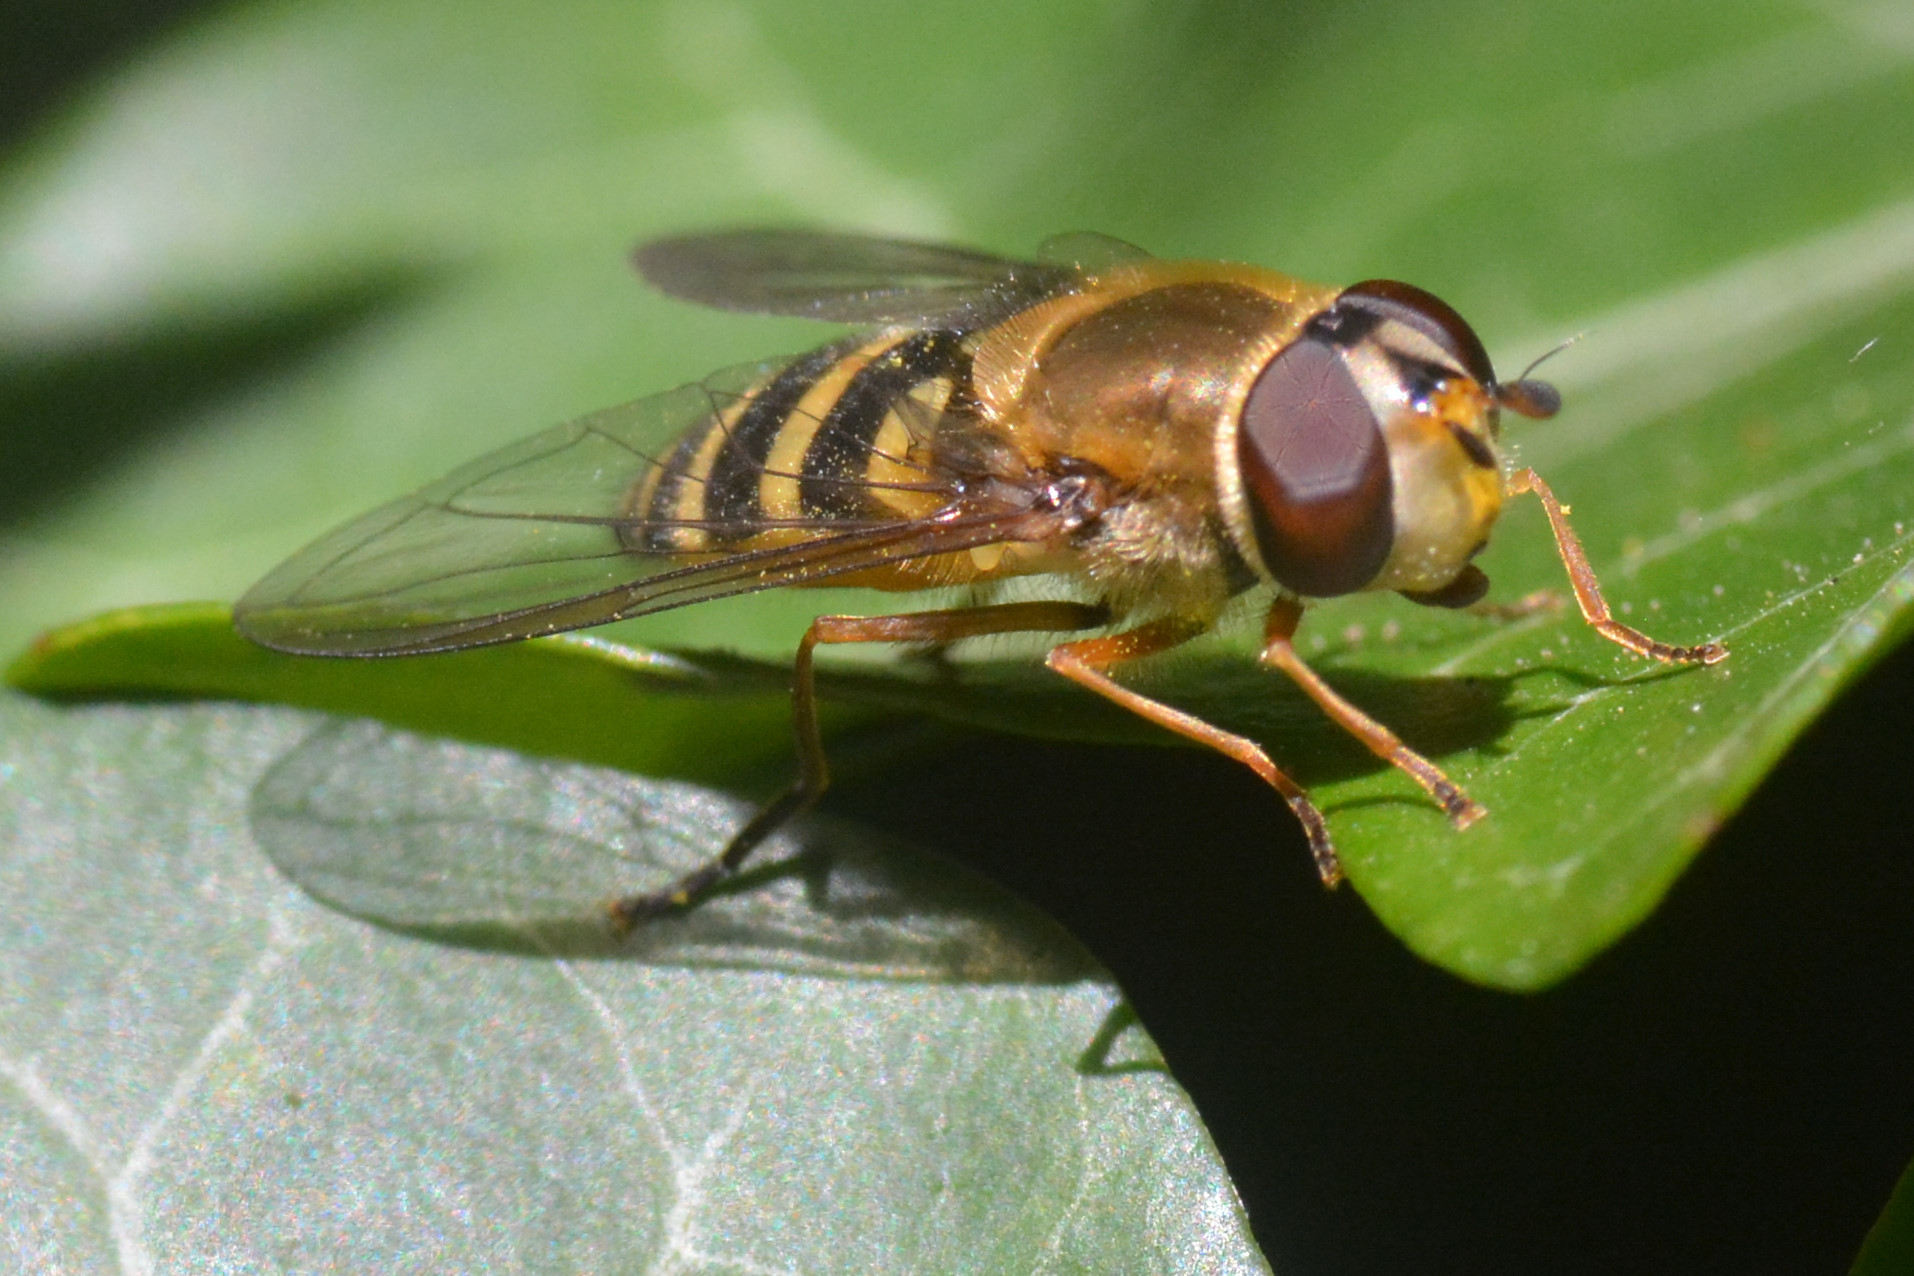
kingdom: Animalia
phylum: Arthropoda
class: Insecta
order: Diptera
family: Syrphidae
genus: Syrphus
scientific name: Syrphus ribesii
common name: Common flower fly
